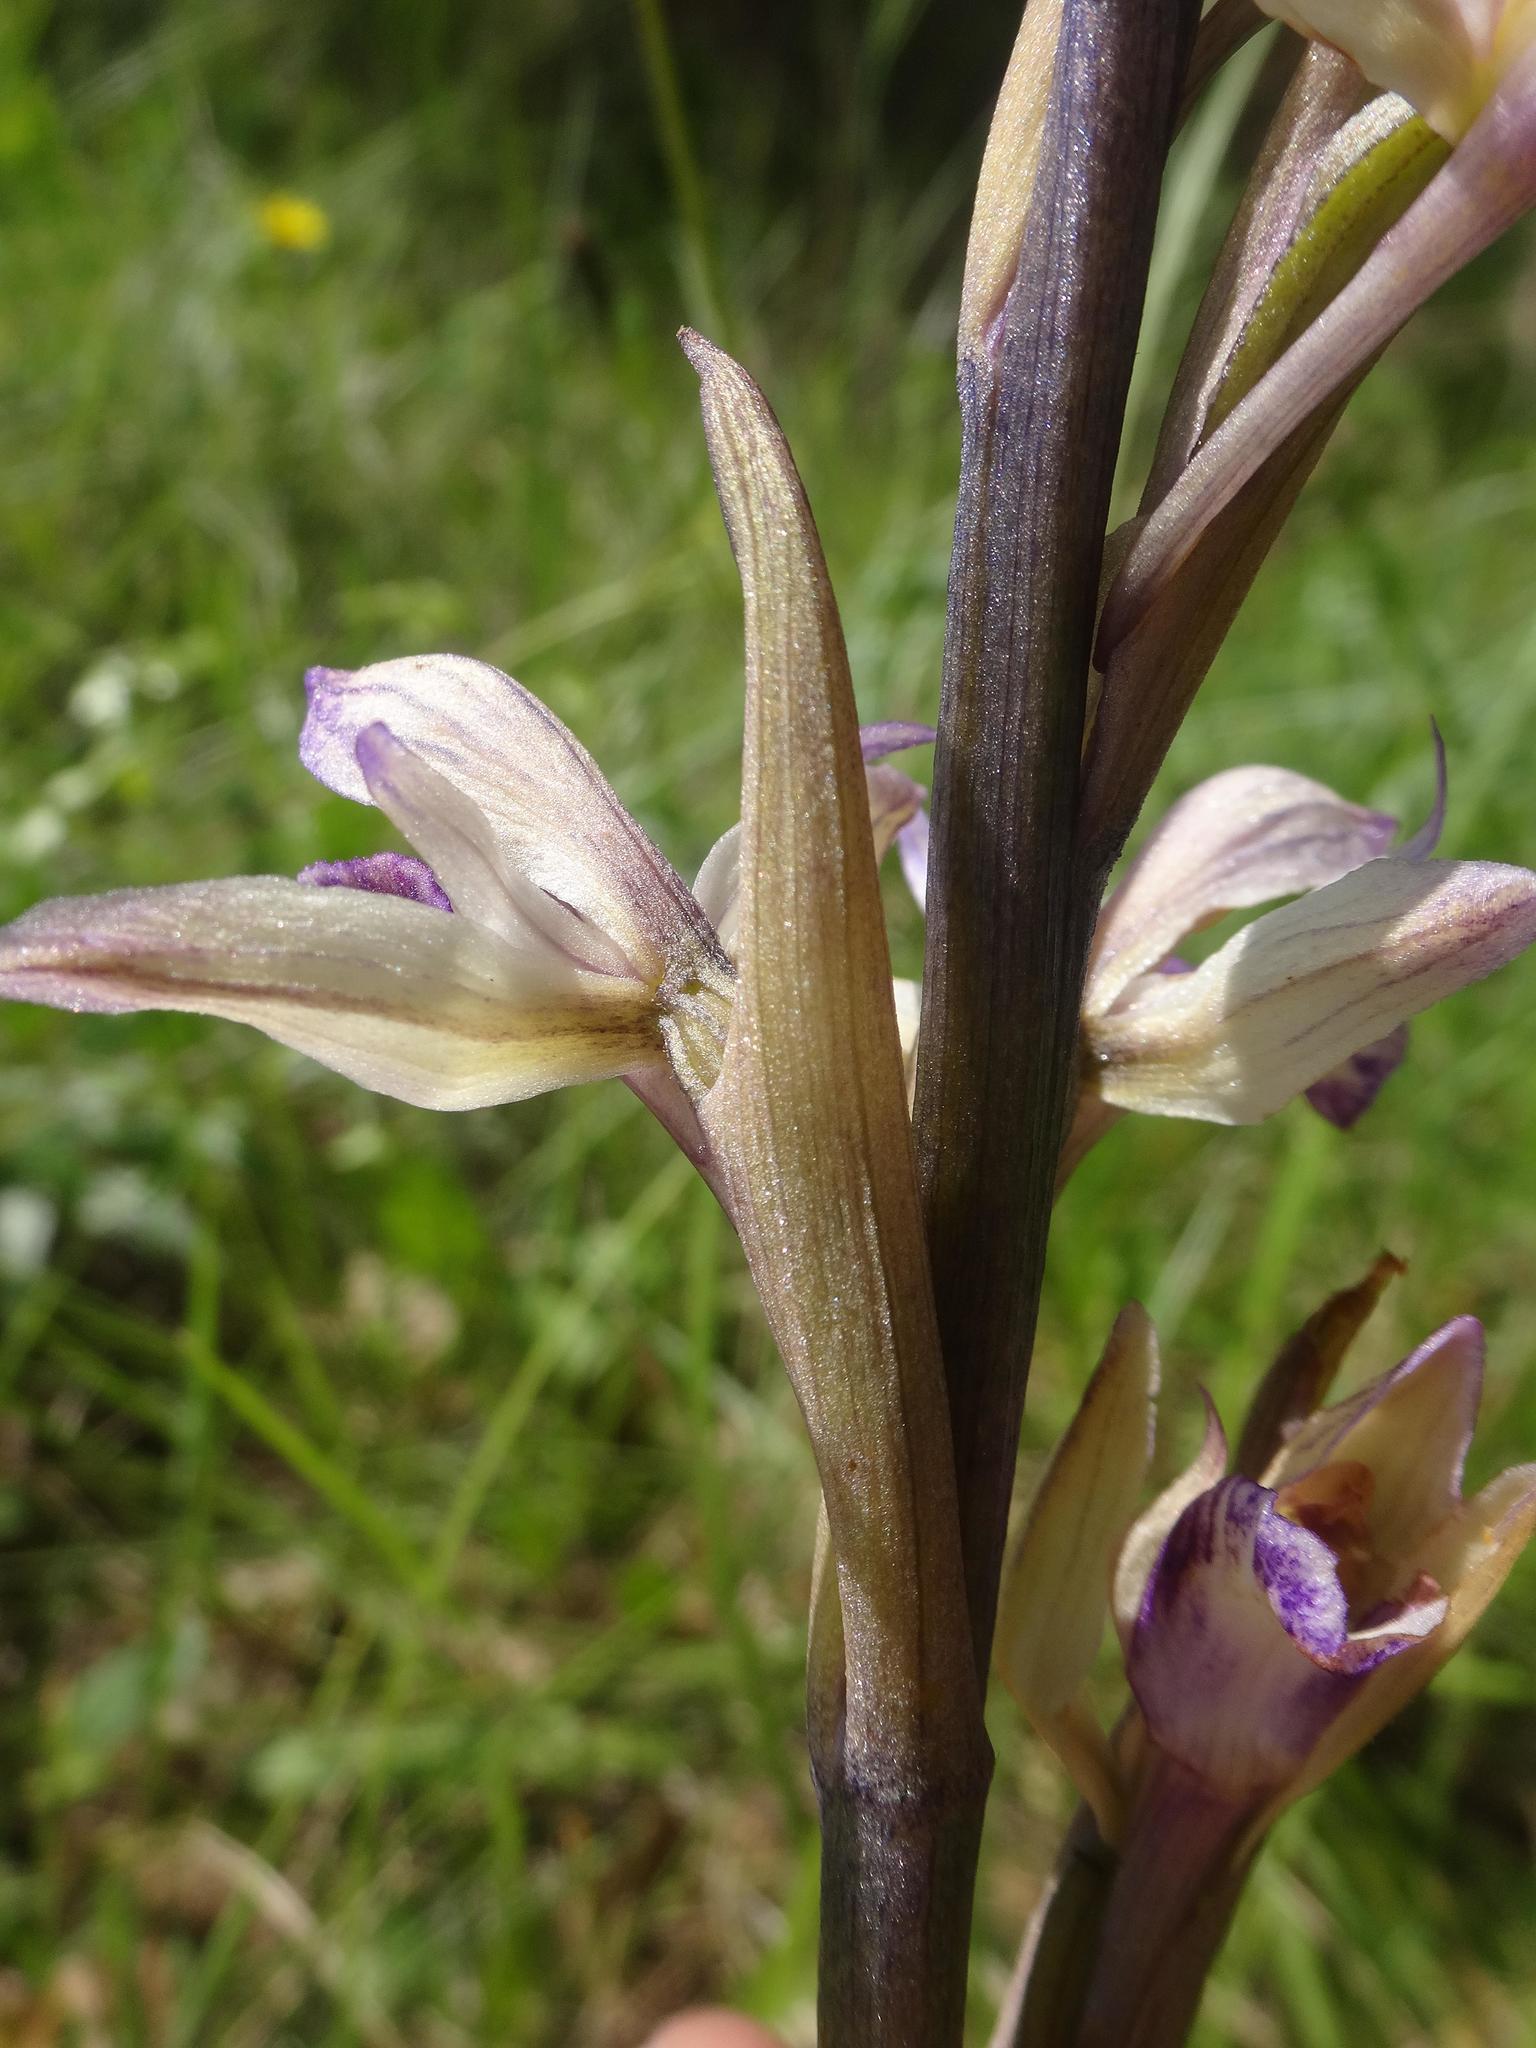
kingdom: Plantae
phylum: Tracheophyta
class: Liliopsida
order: Asparagales
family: Orchidaceae
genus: Limodorum
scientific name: Limodorum abortivum
